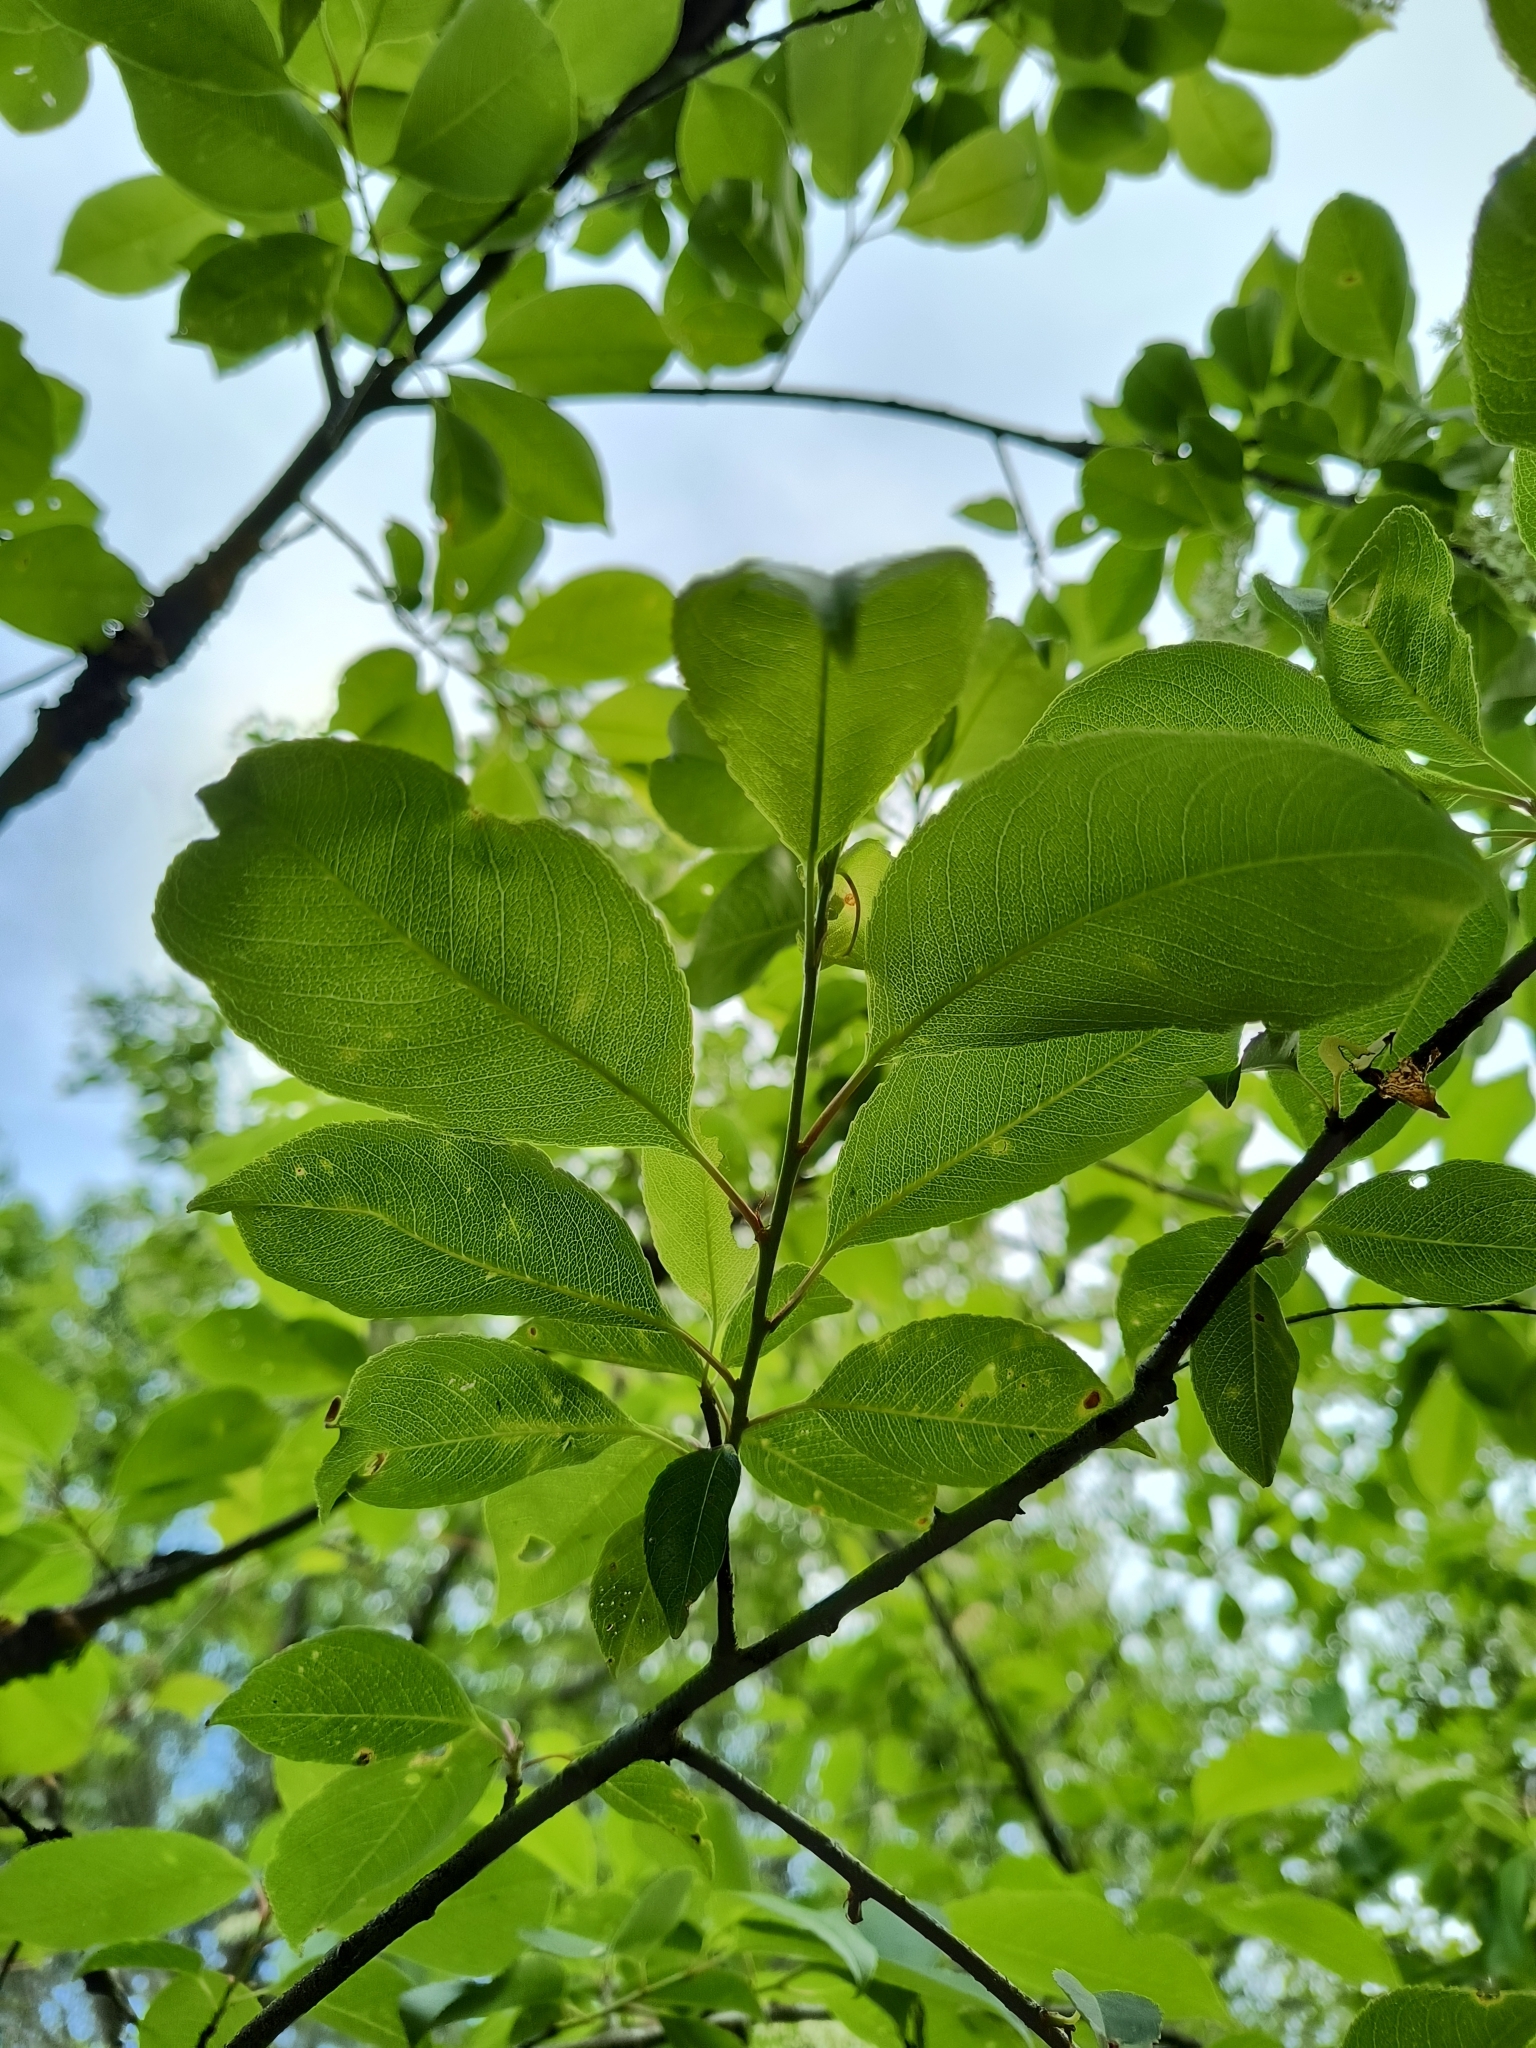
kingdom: Plantae
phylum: Tracheophyta
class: Magnoliopsida
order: Rosales
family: Rosaceae
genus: Prunus
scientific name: Prunus serotina
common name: Black cherry
